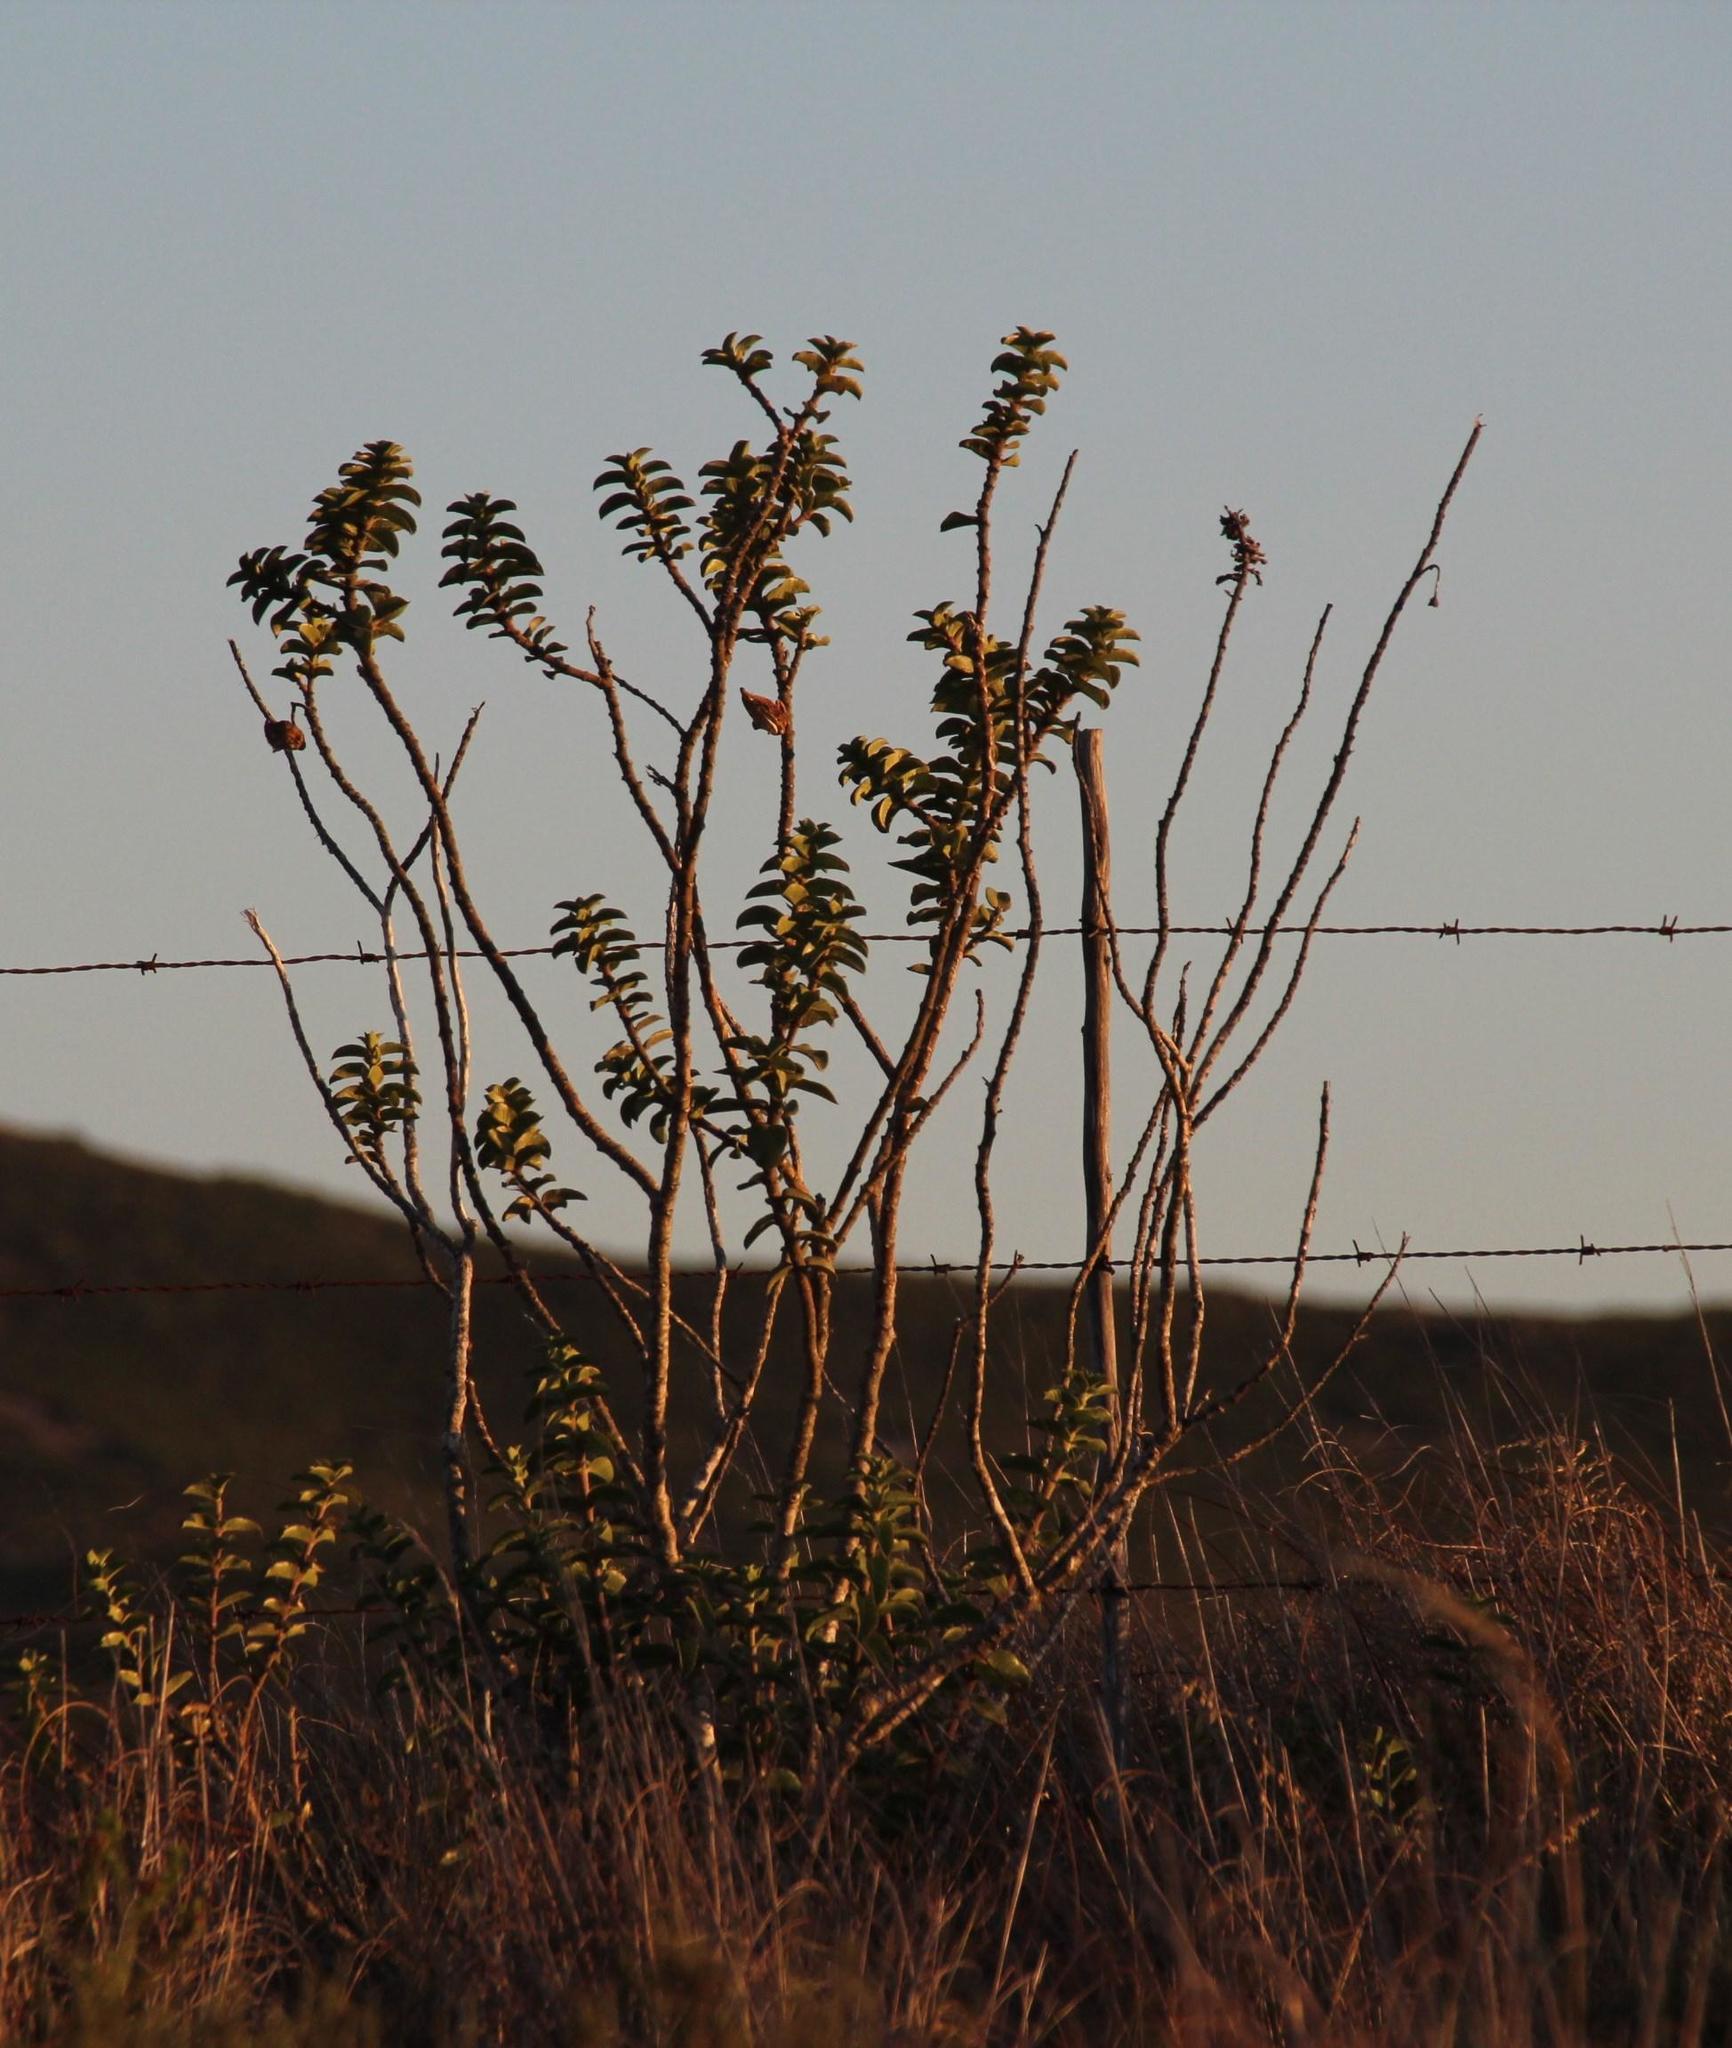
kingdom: Plantae
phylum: Tracheophyta
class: Magnoliopsida
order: Gentianales
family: Apocynaceae
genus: Gomphocarpus
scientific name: Gomphocarpus cancellatus
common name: Wild cotton
